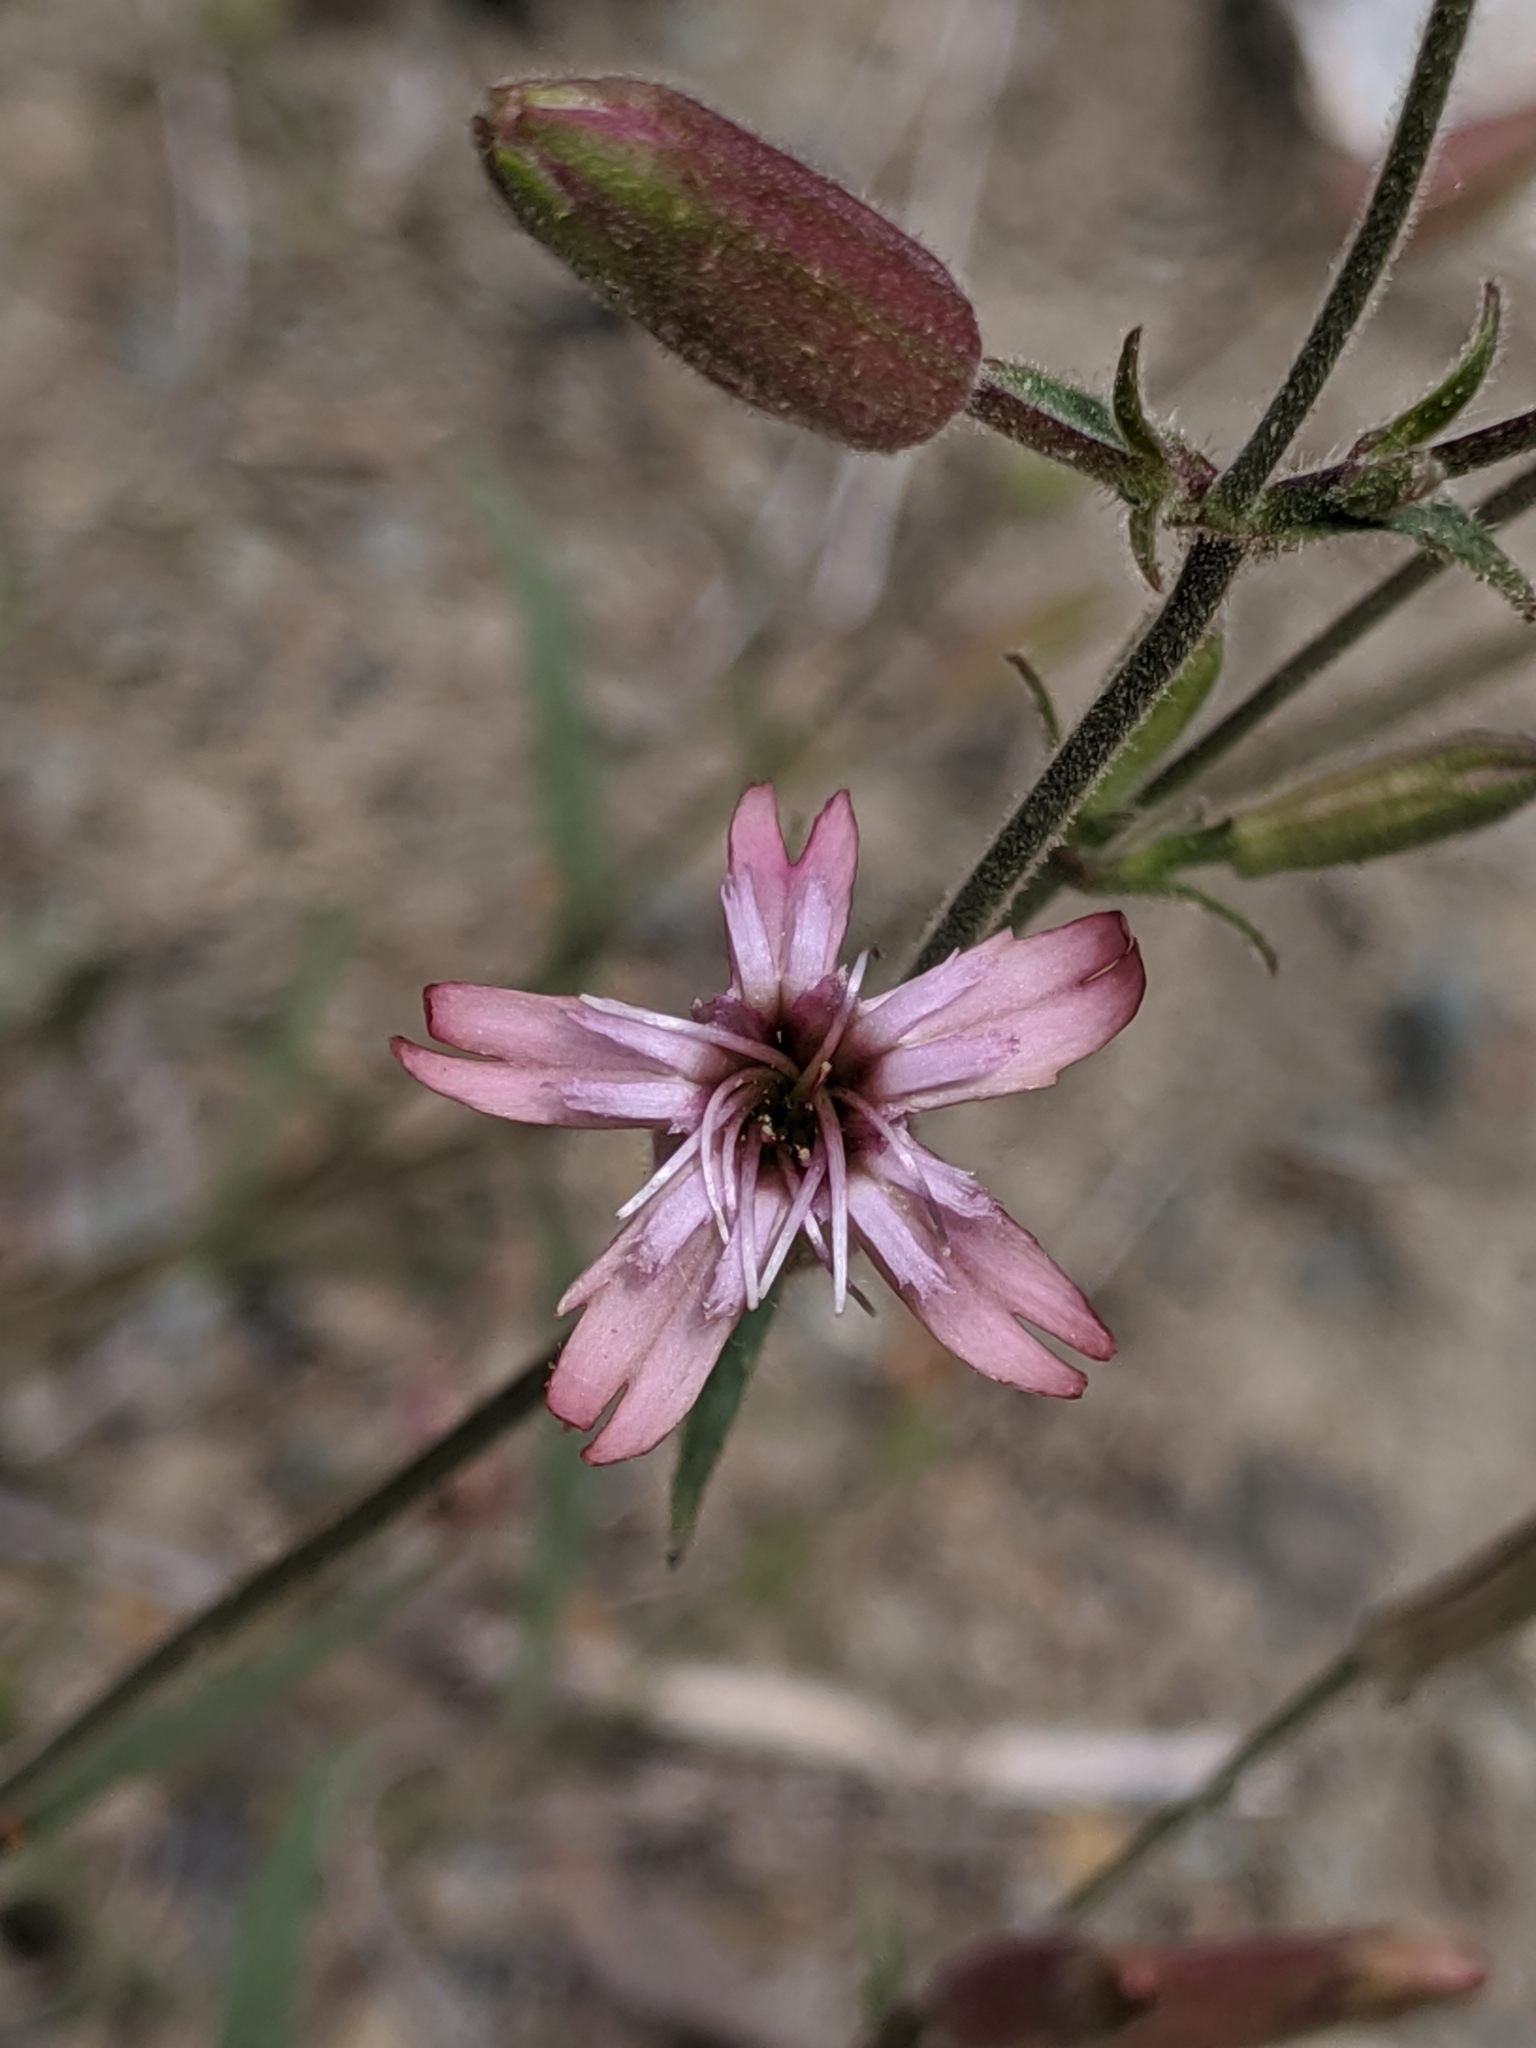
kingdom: Plantae
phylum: Tracheophyta
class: Magnoliopsida
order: Caryophyllales
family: Caryophyllaceae
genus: Silene
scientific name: Silene verecunda
